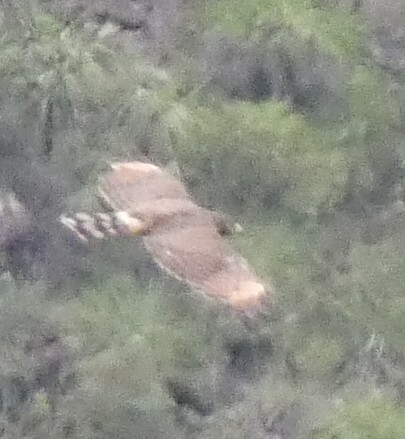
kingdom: Animalia
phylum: Chordata
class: Aves
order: Accipitriformes
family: Accipitridae
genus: Rupornis
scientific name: Rupornis magnirostris
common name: Roadside hawk
